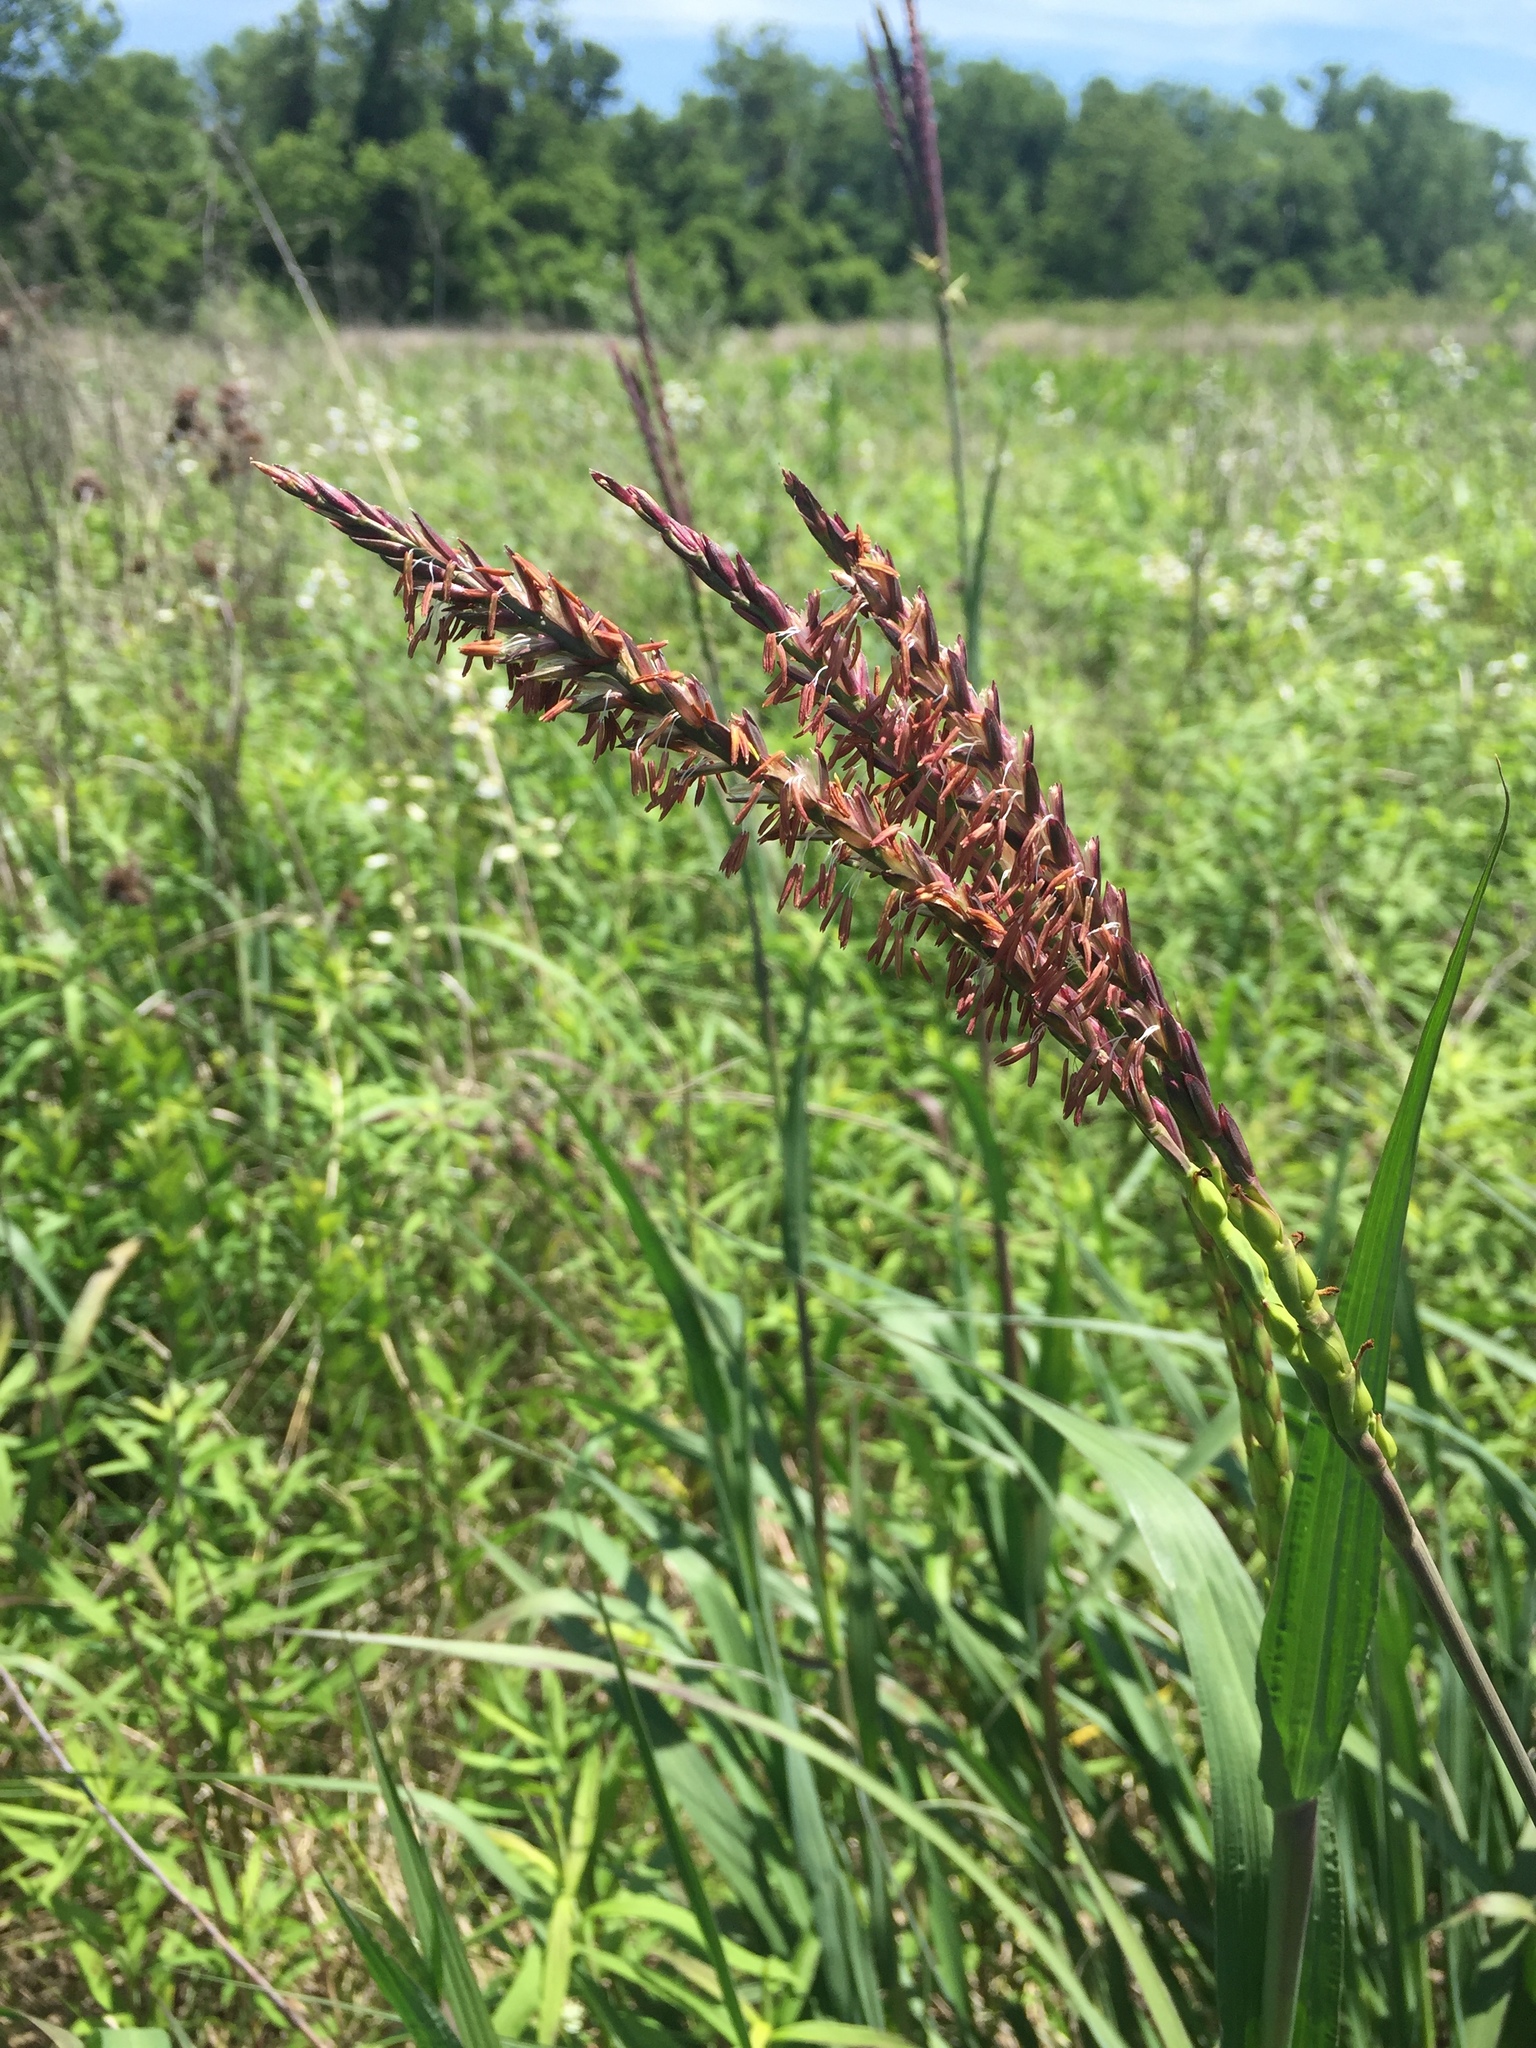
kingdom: Plantae
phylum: Tracheophyta
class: Liliopsida
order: Poales
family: Poaceae
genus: Tripsacum
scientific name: Tripsacum dactyloides
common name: Buffalo-grass
